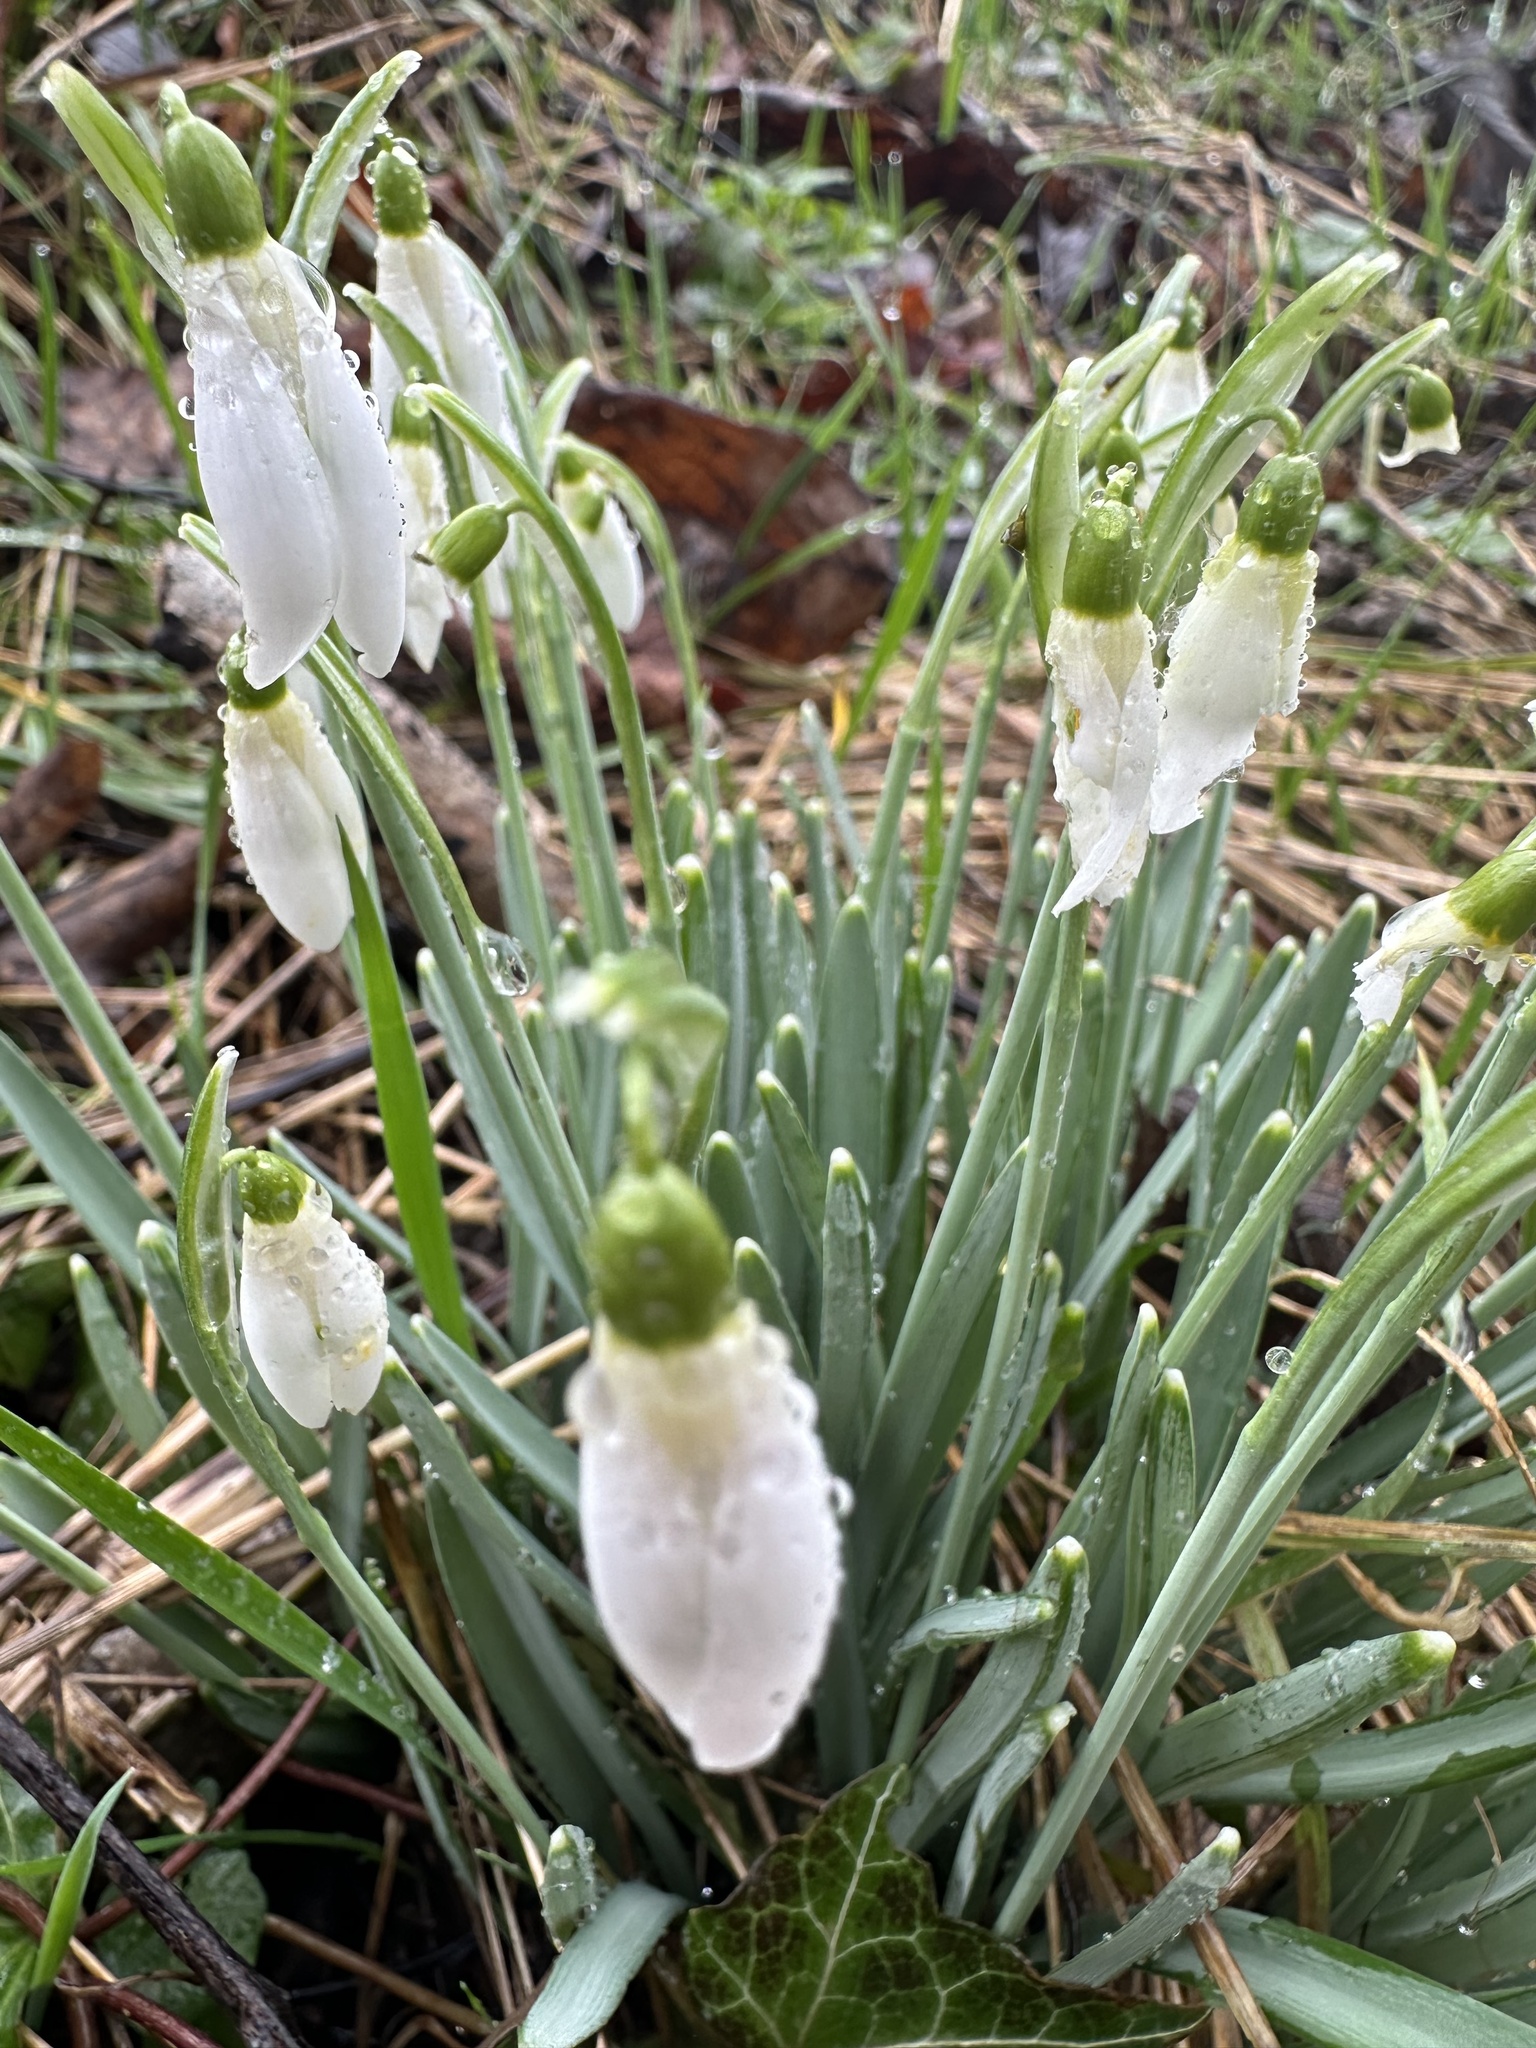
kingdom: Plantae
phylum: Tracheophyta
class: Liliopsida
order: Asparagales
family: Amaryllidaceae
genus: Galanthus
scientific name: Galanthus nivalis
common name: Snowdrop
